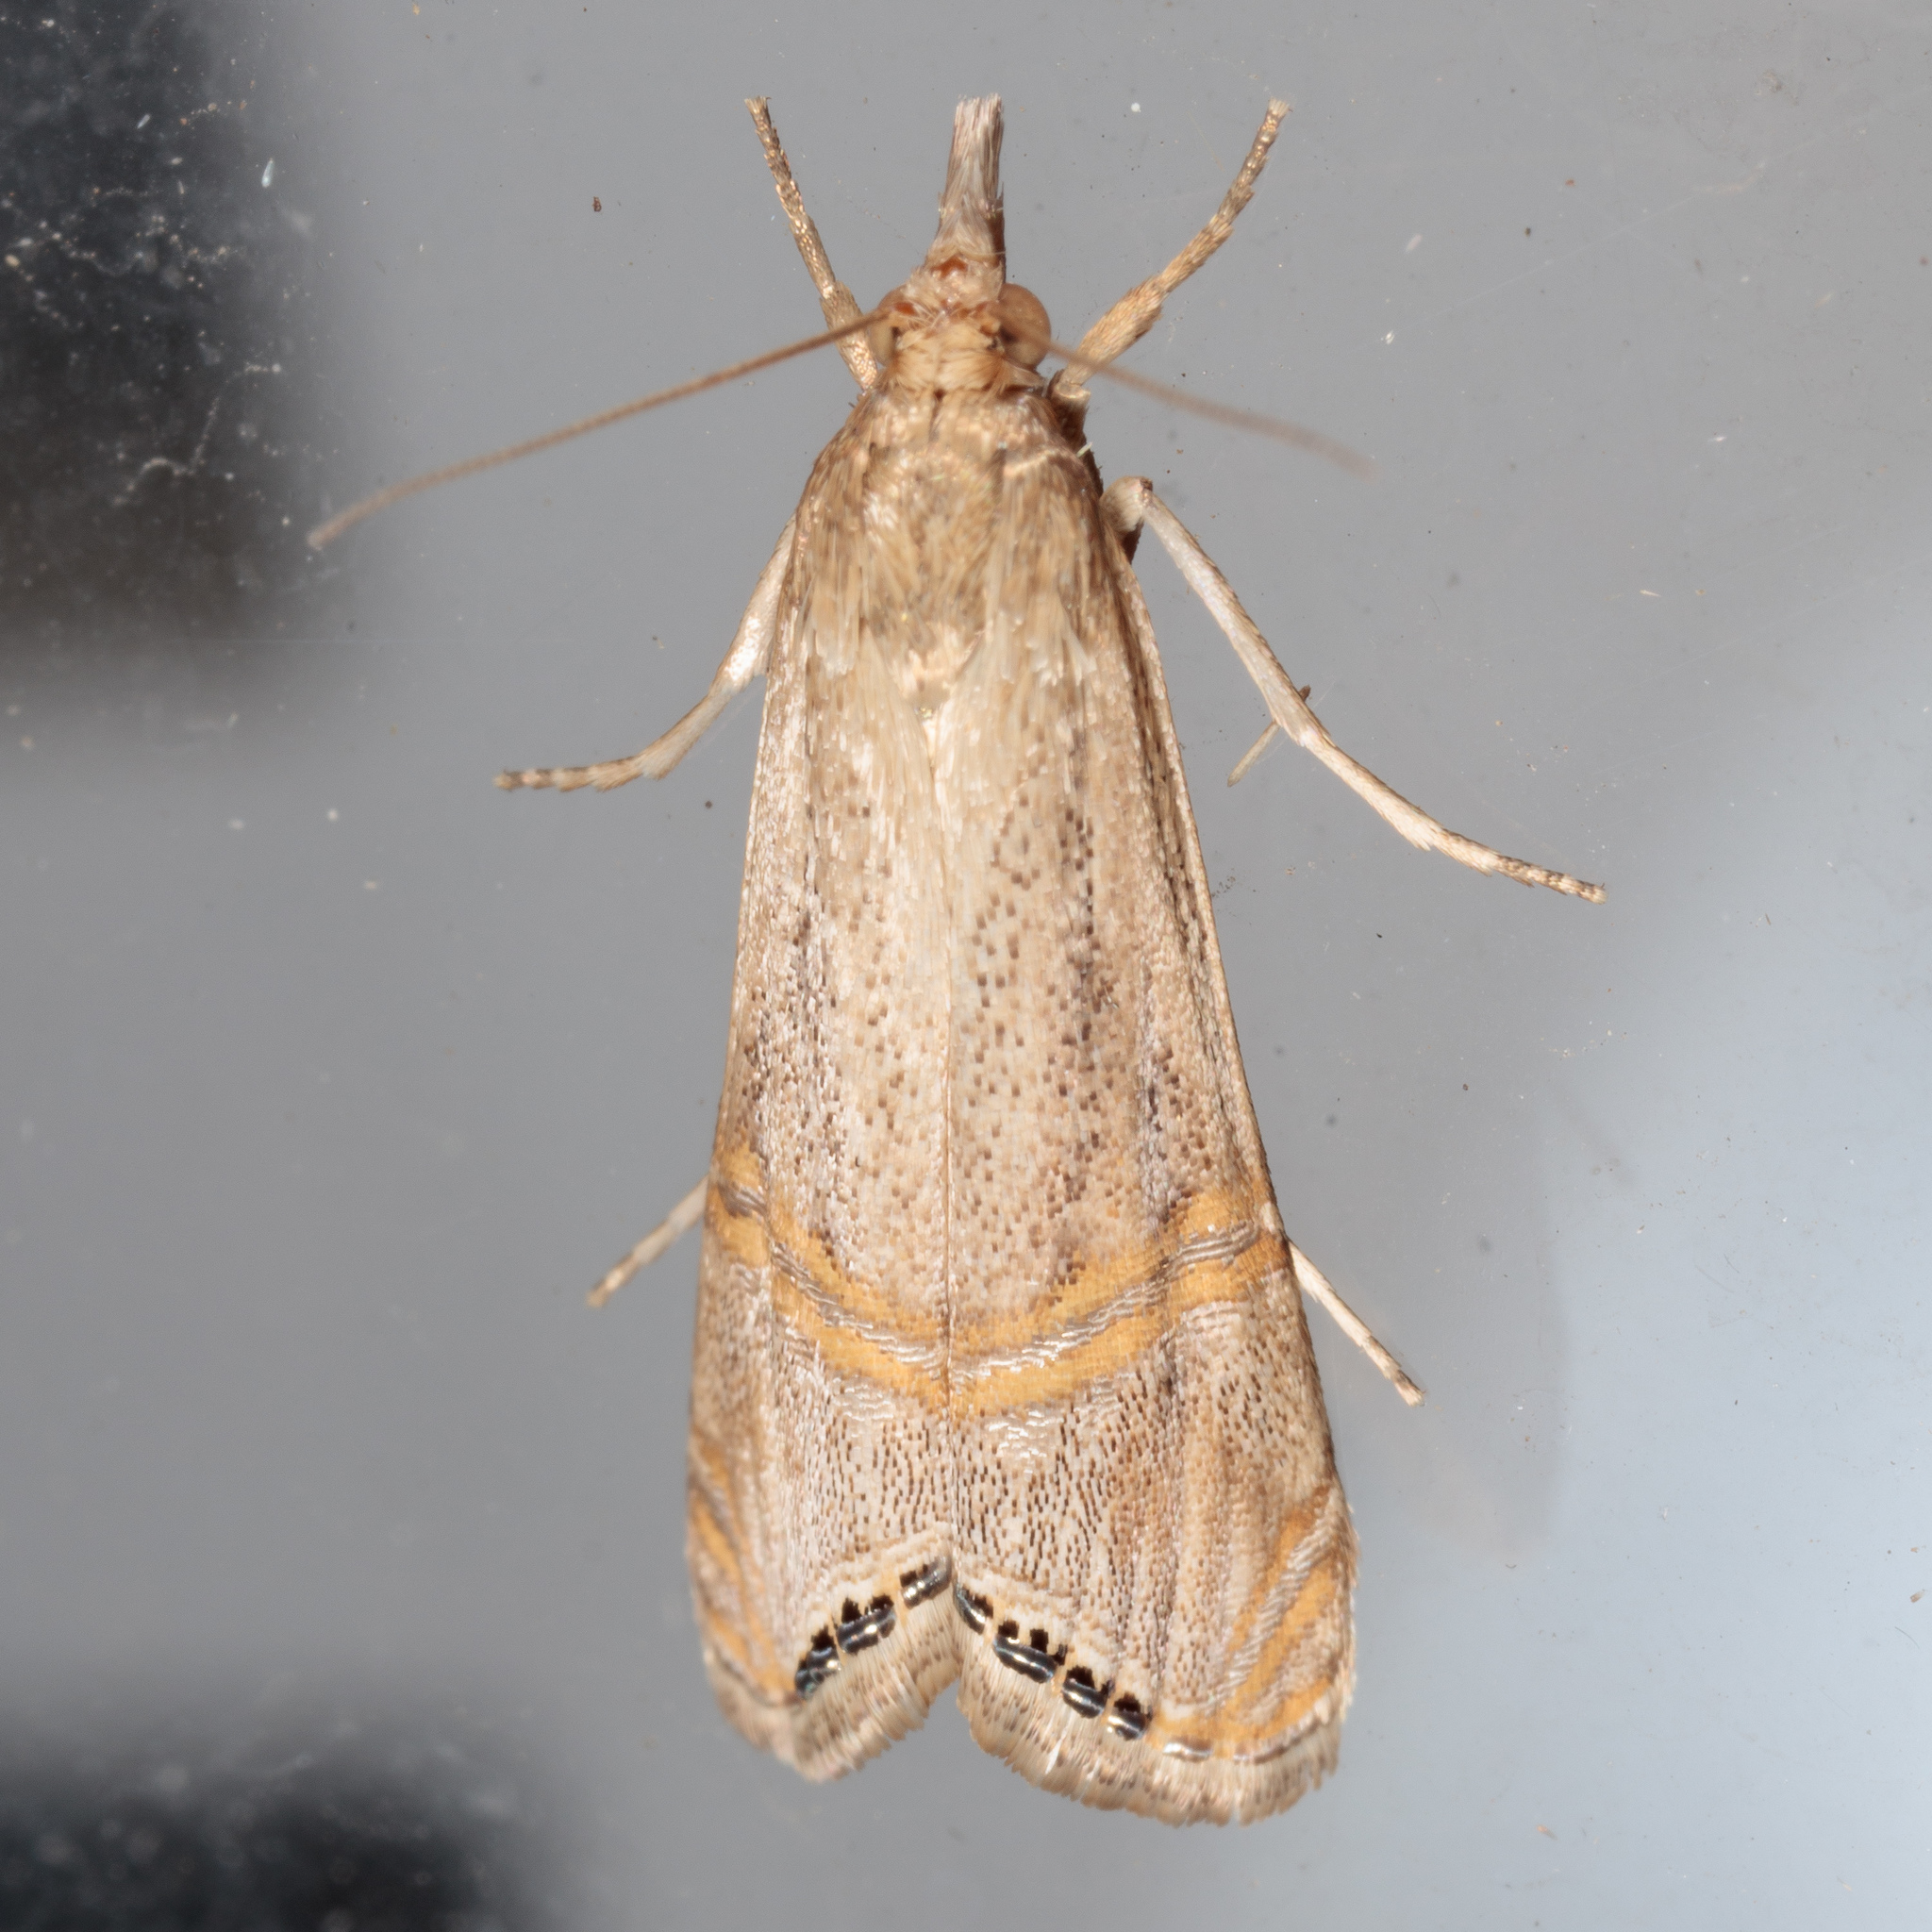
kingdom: Animalia
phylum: Arthropoda
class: Insecta
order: Lepidoptera
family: Crambidae
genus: Euchromius
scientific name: Euchromius ocellea
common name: Necklace veneer moth
